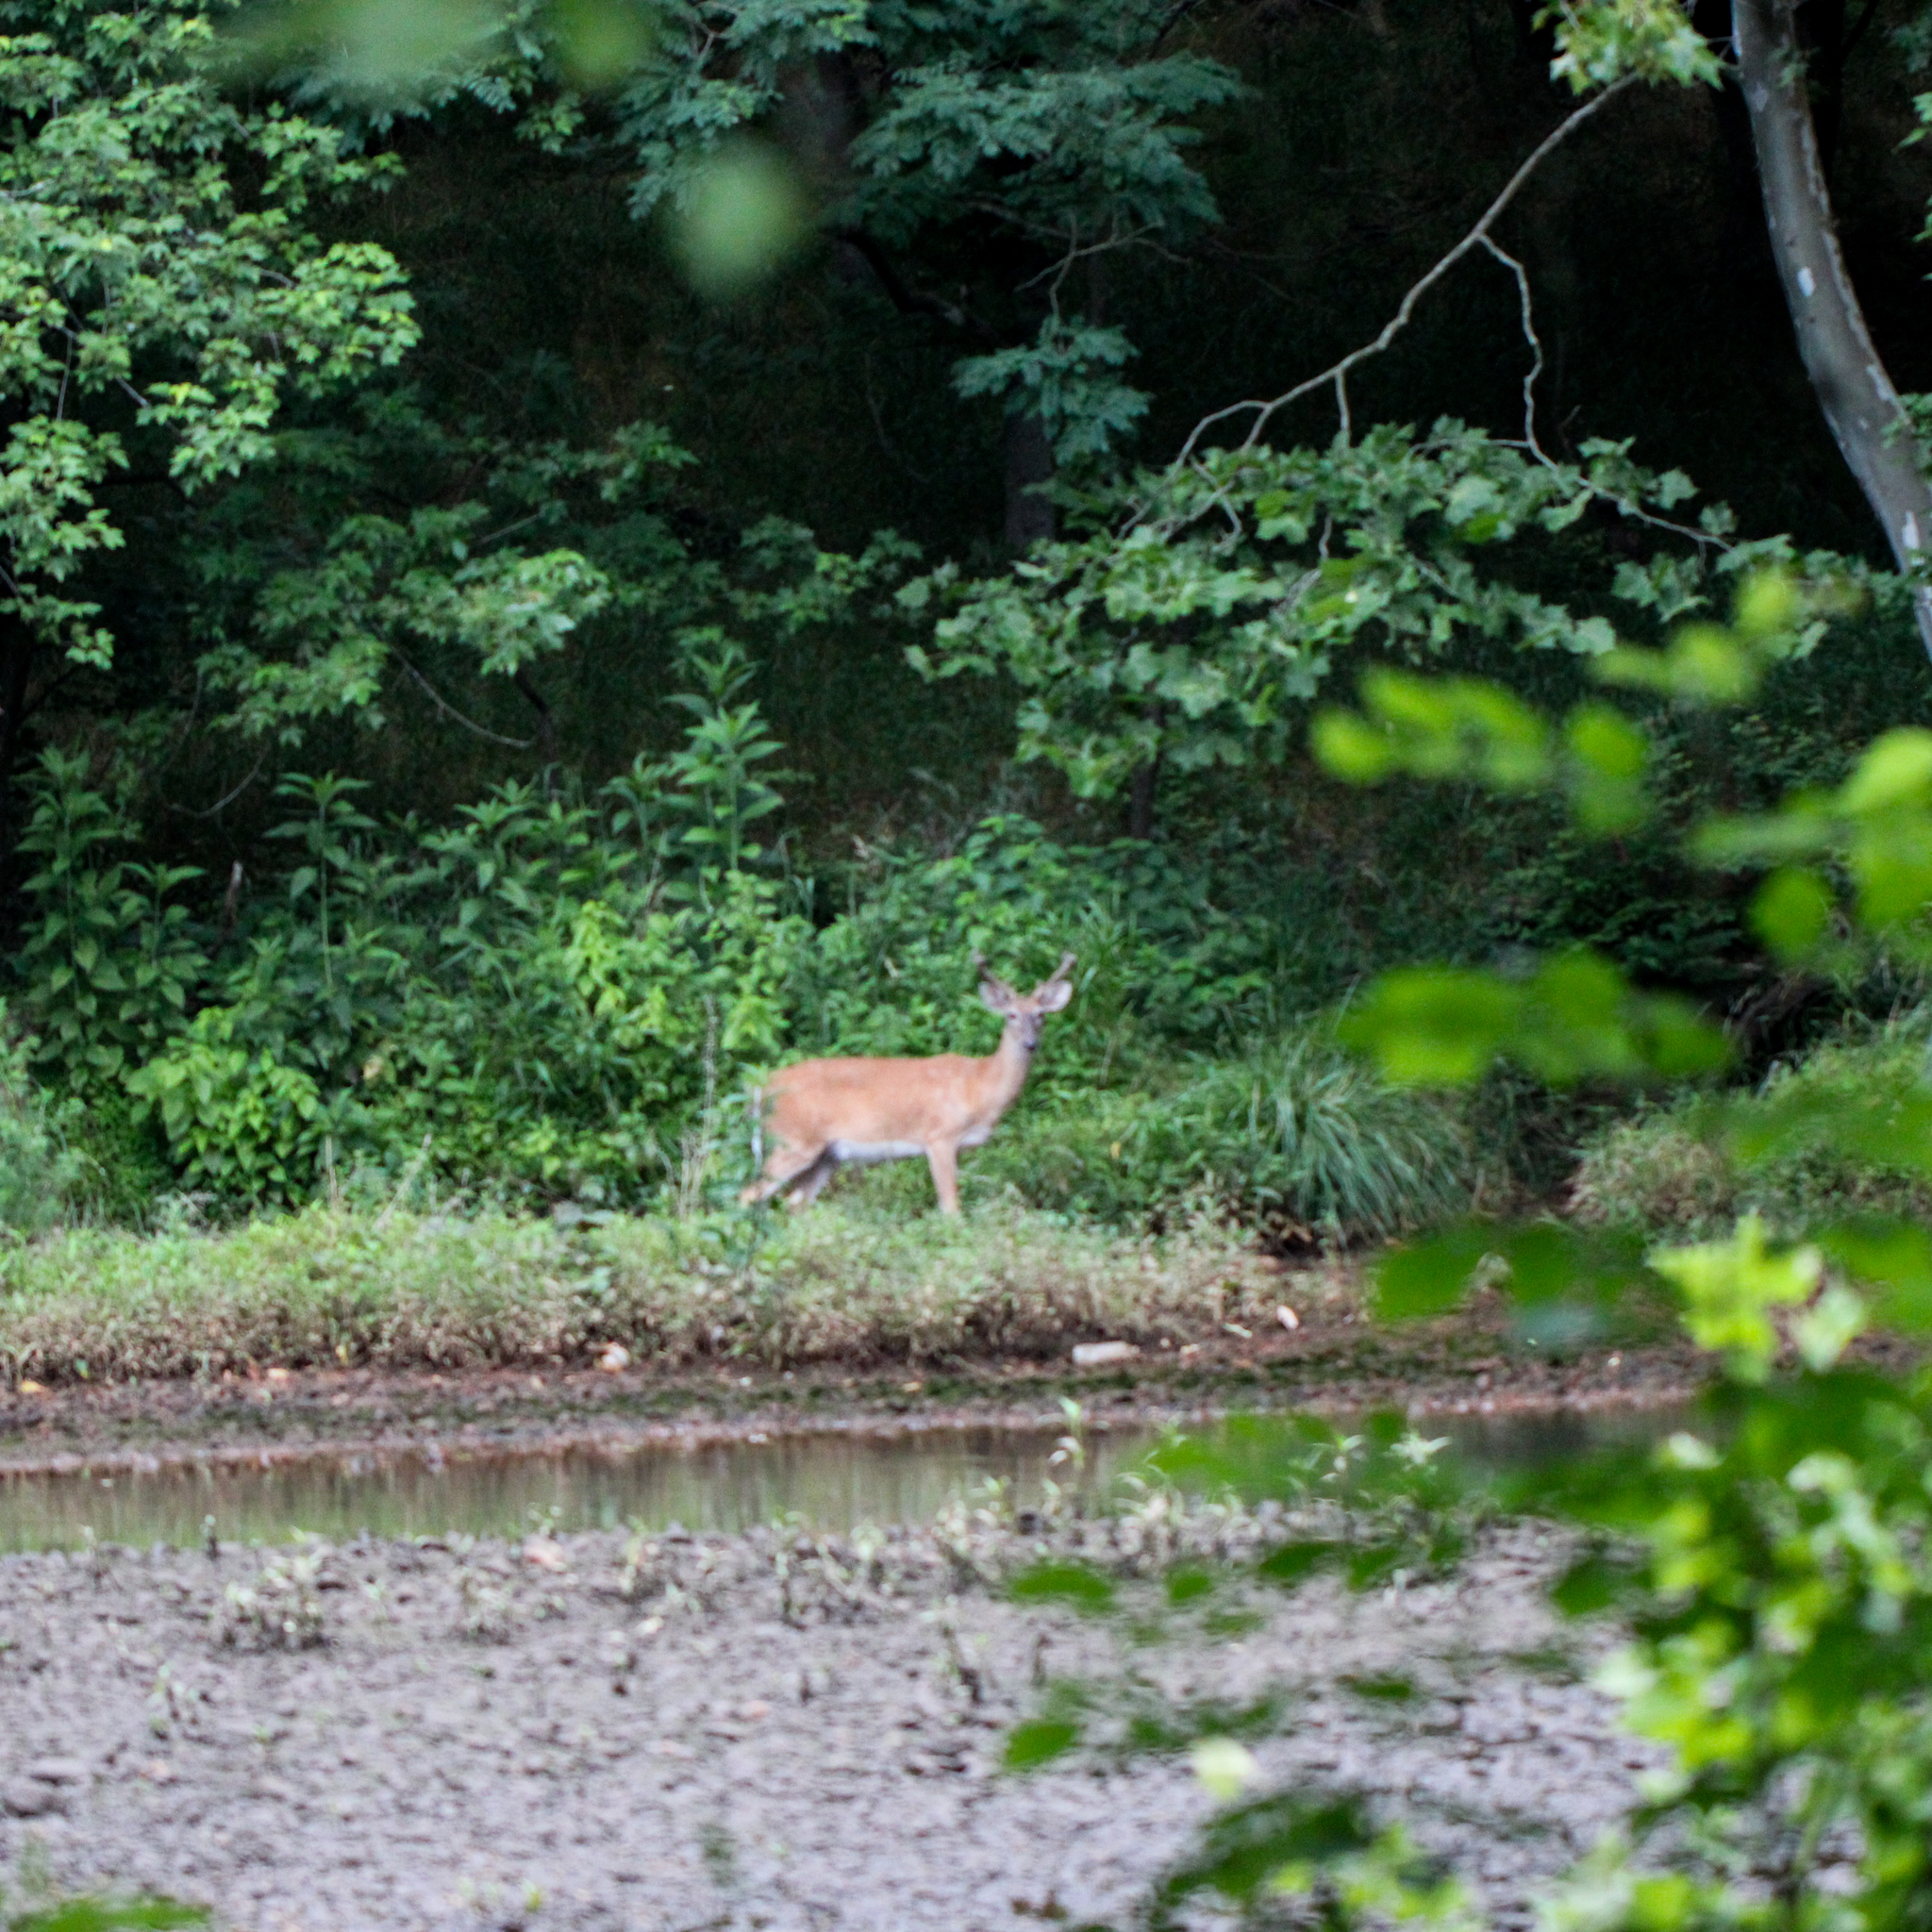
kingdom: Animalia
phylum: Chordata
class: Mammalia
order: Artiodactyla
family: Cervidae
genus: Odocoileus
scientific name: Odocoileus virginianus
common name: White-tailed deer
